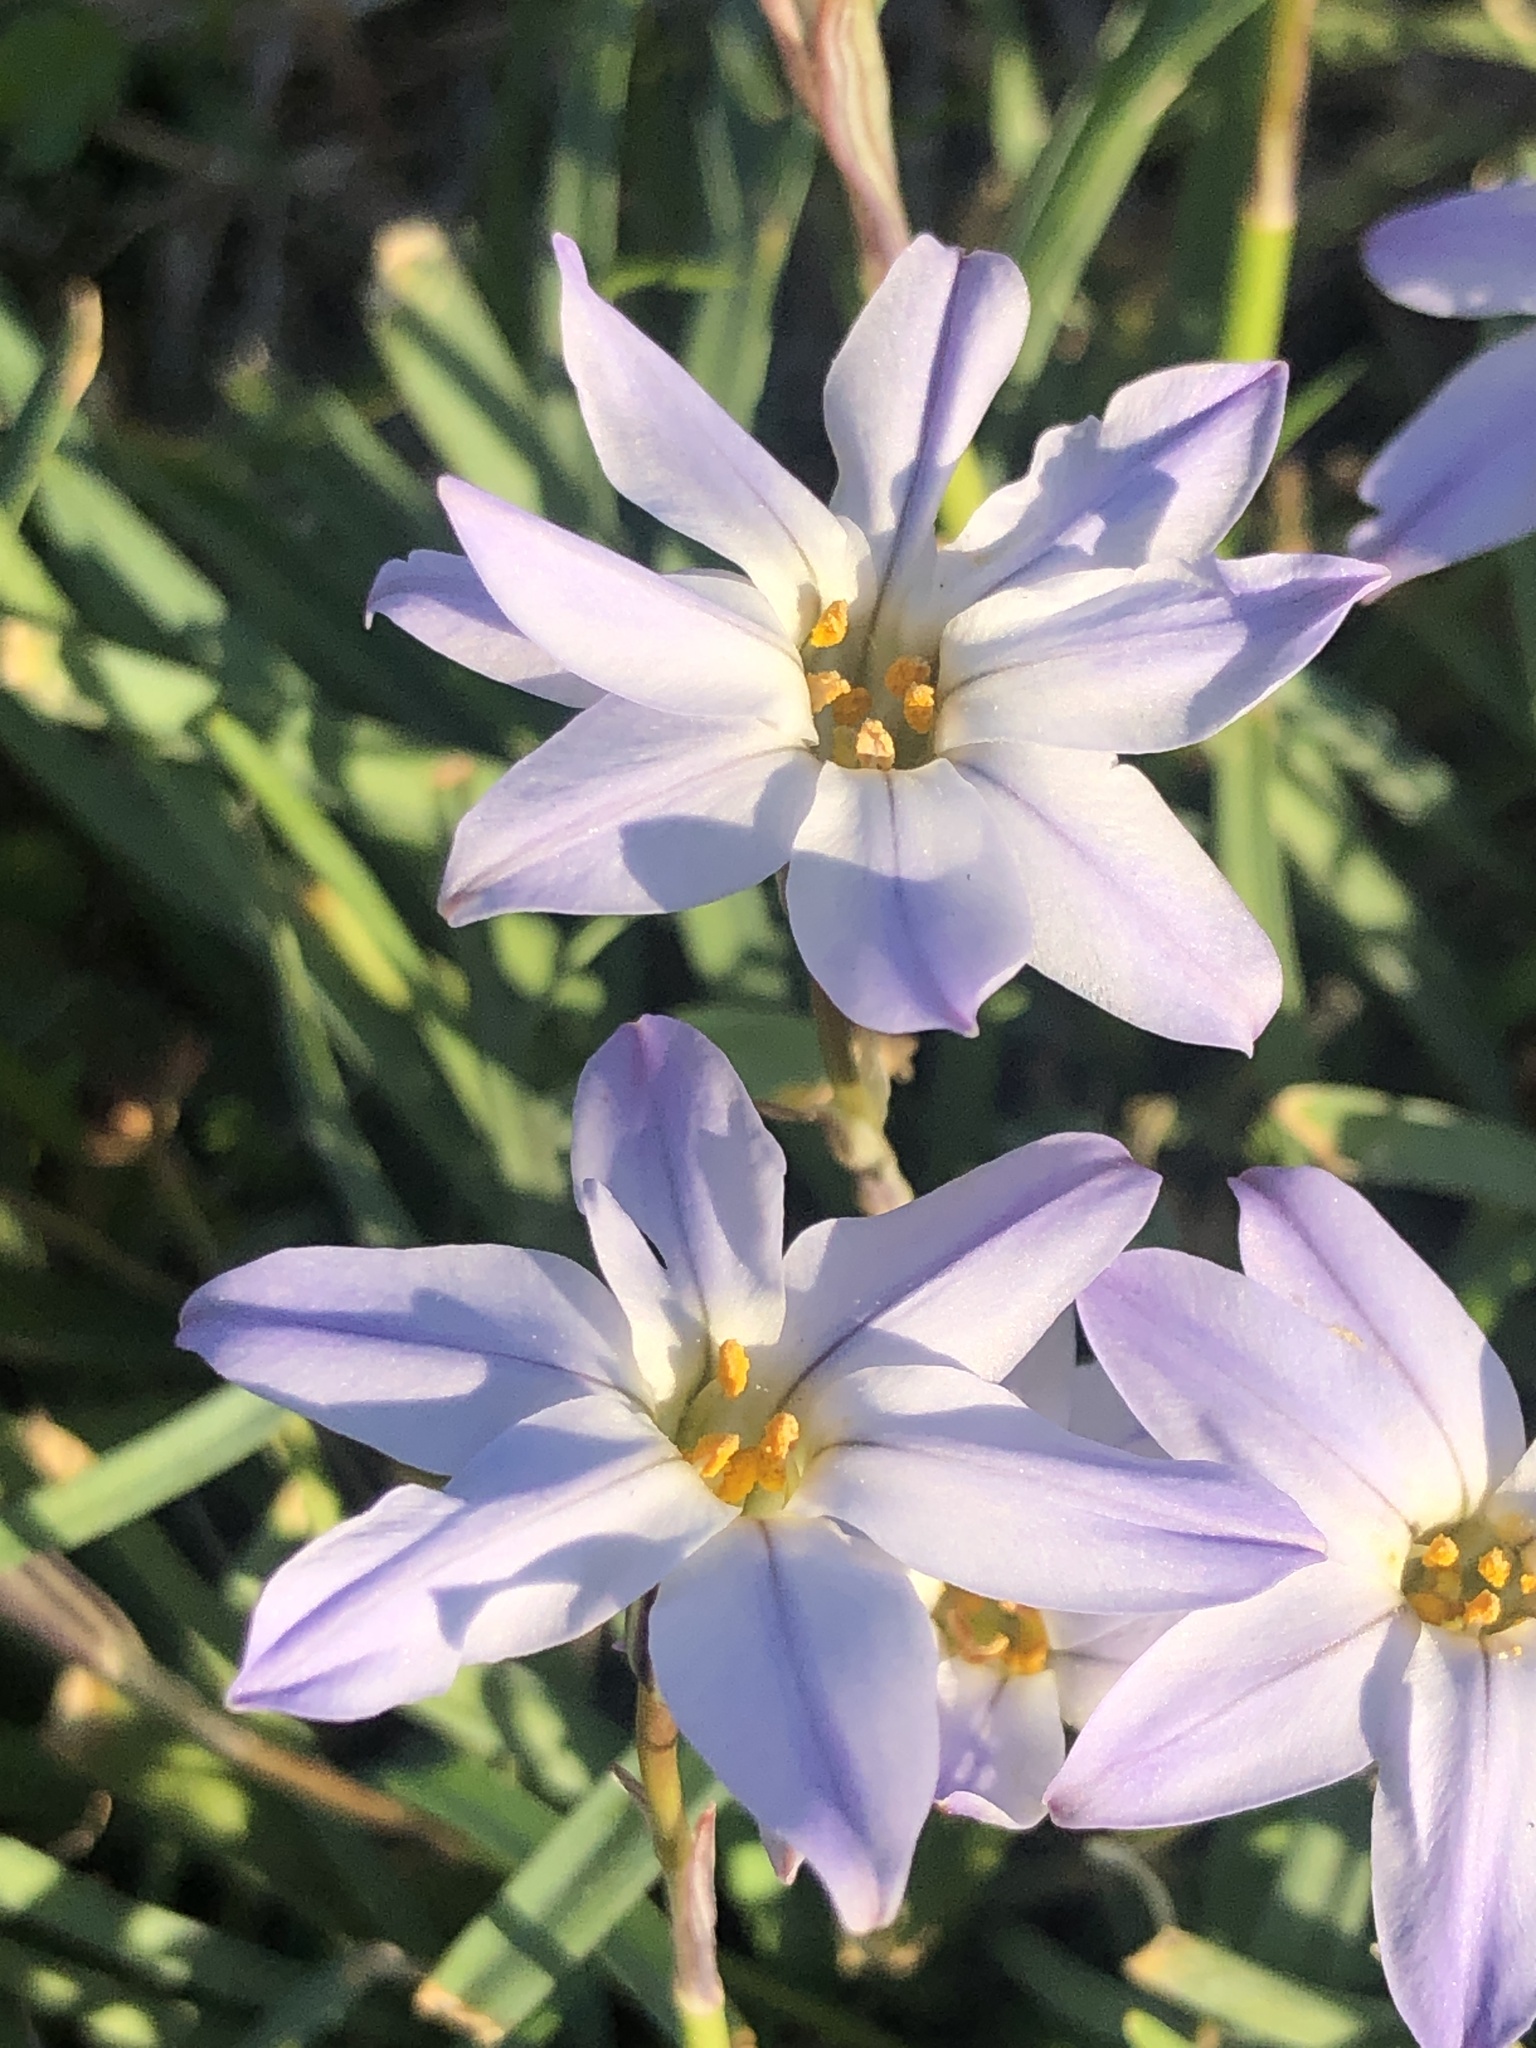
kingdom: Plantae
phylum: Tracheophyta
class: Liliopsida
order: Asparagales
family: Amaryllidaceae
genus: Ipheion
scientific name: Ipheion uniflorum
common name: Spring starflower
